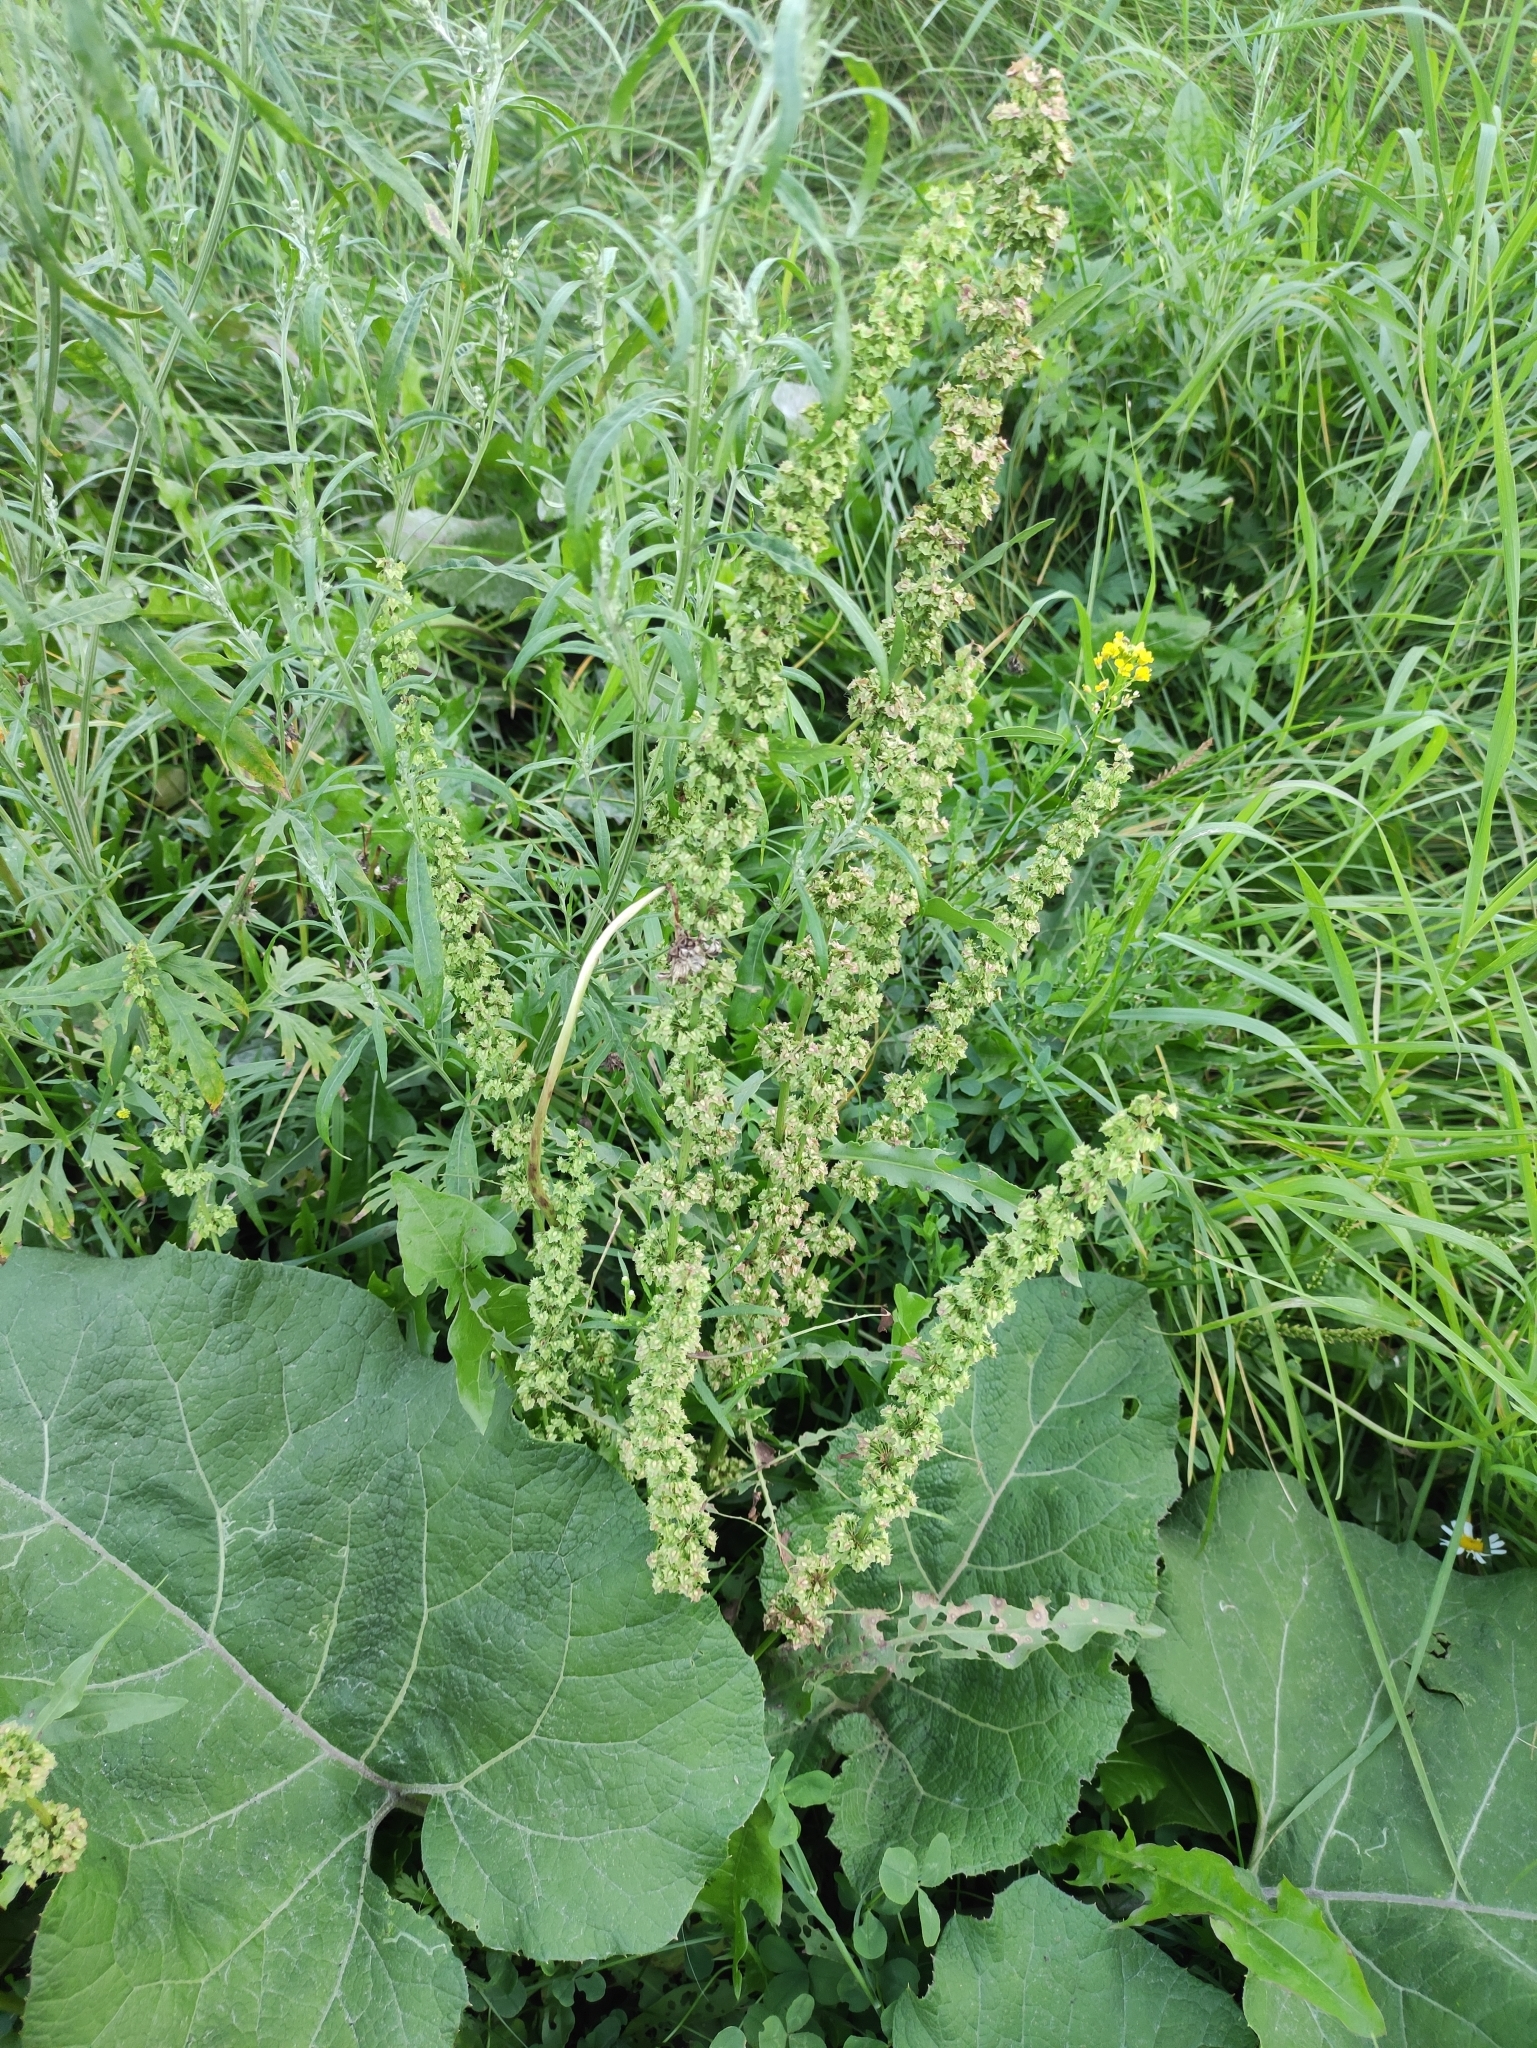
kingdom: Plantae
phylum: Tracheophyta
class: Magnoliopsida
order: Caryophyllales
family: Polygonaceae
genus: Rumex
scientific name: Rumex stenophyllus
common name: Narrowleaf dock
